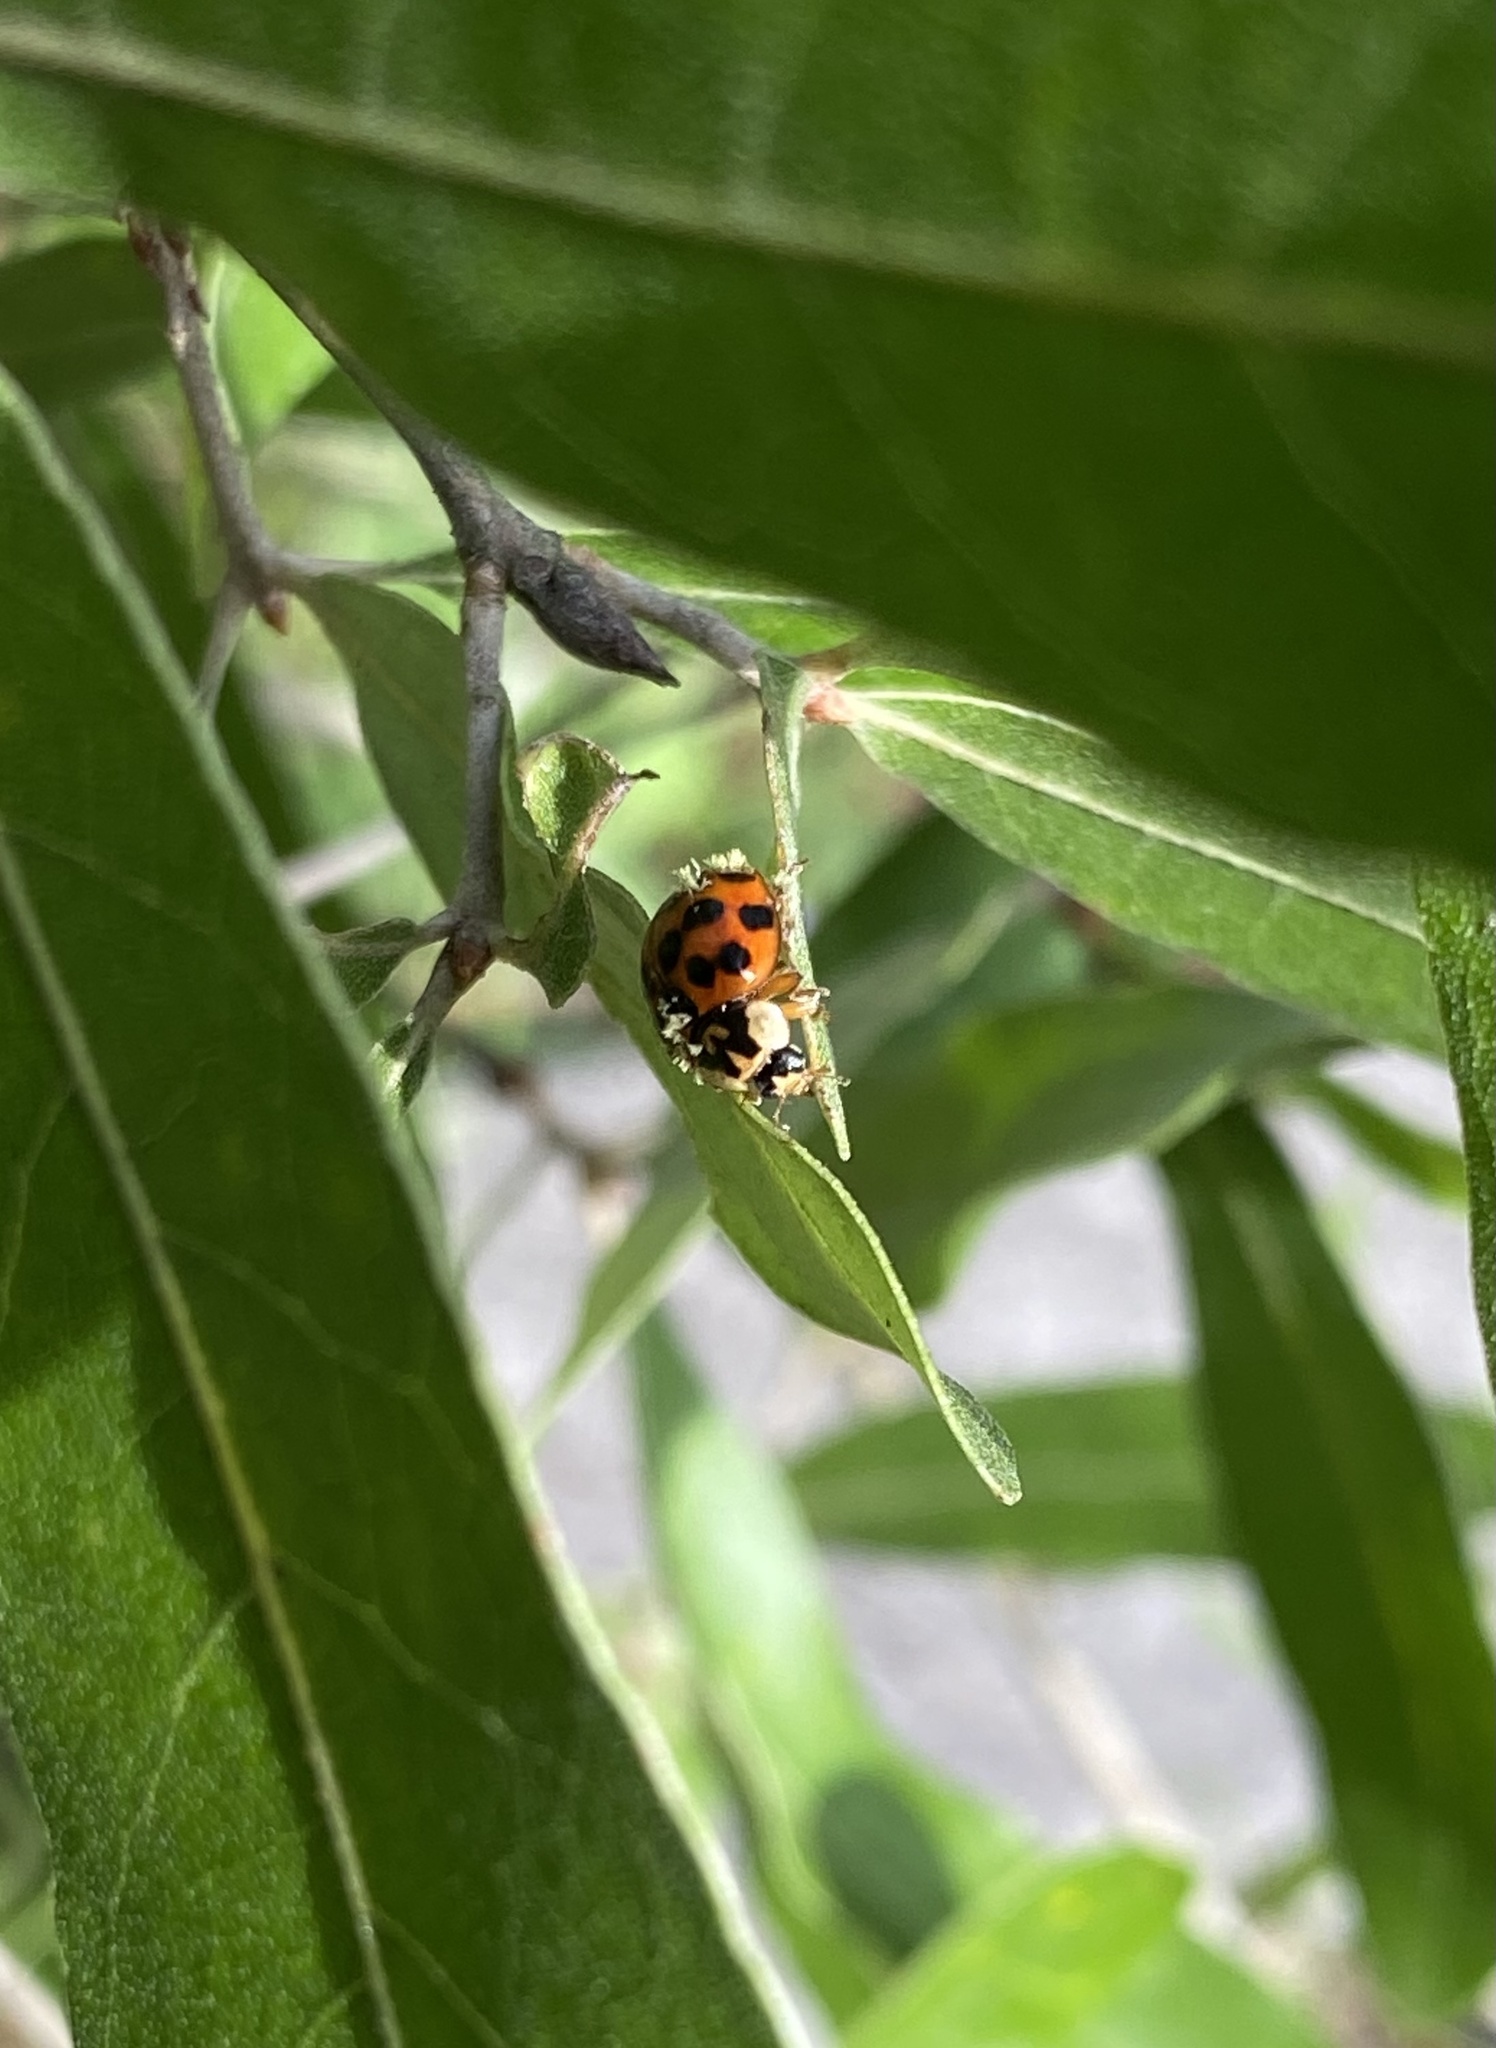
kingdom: Fungi
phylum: Ascomycota
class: Laboulbeniomycetes
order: Laboulbeniales
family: Laboulbeniaceae
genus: Hesperomyces
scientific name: Hesperomyces harmoniae
